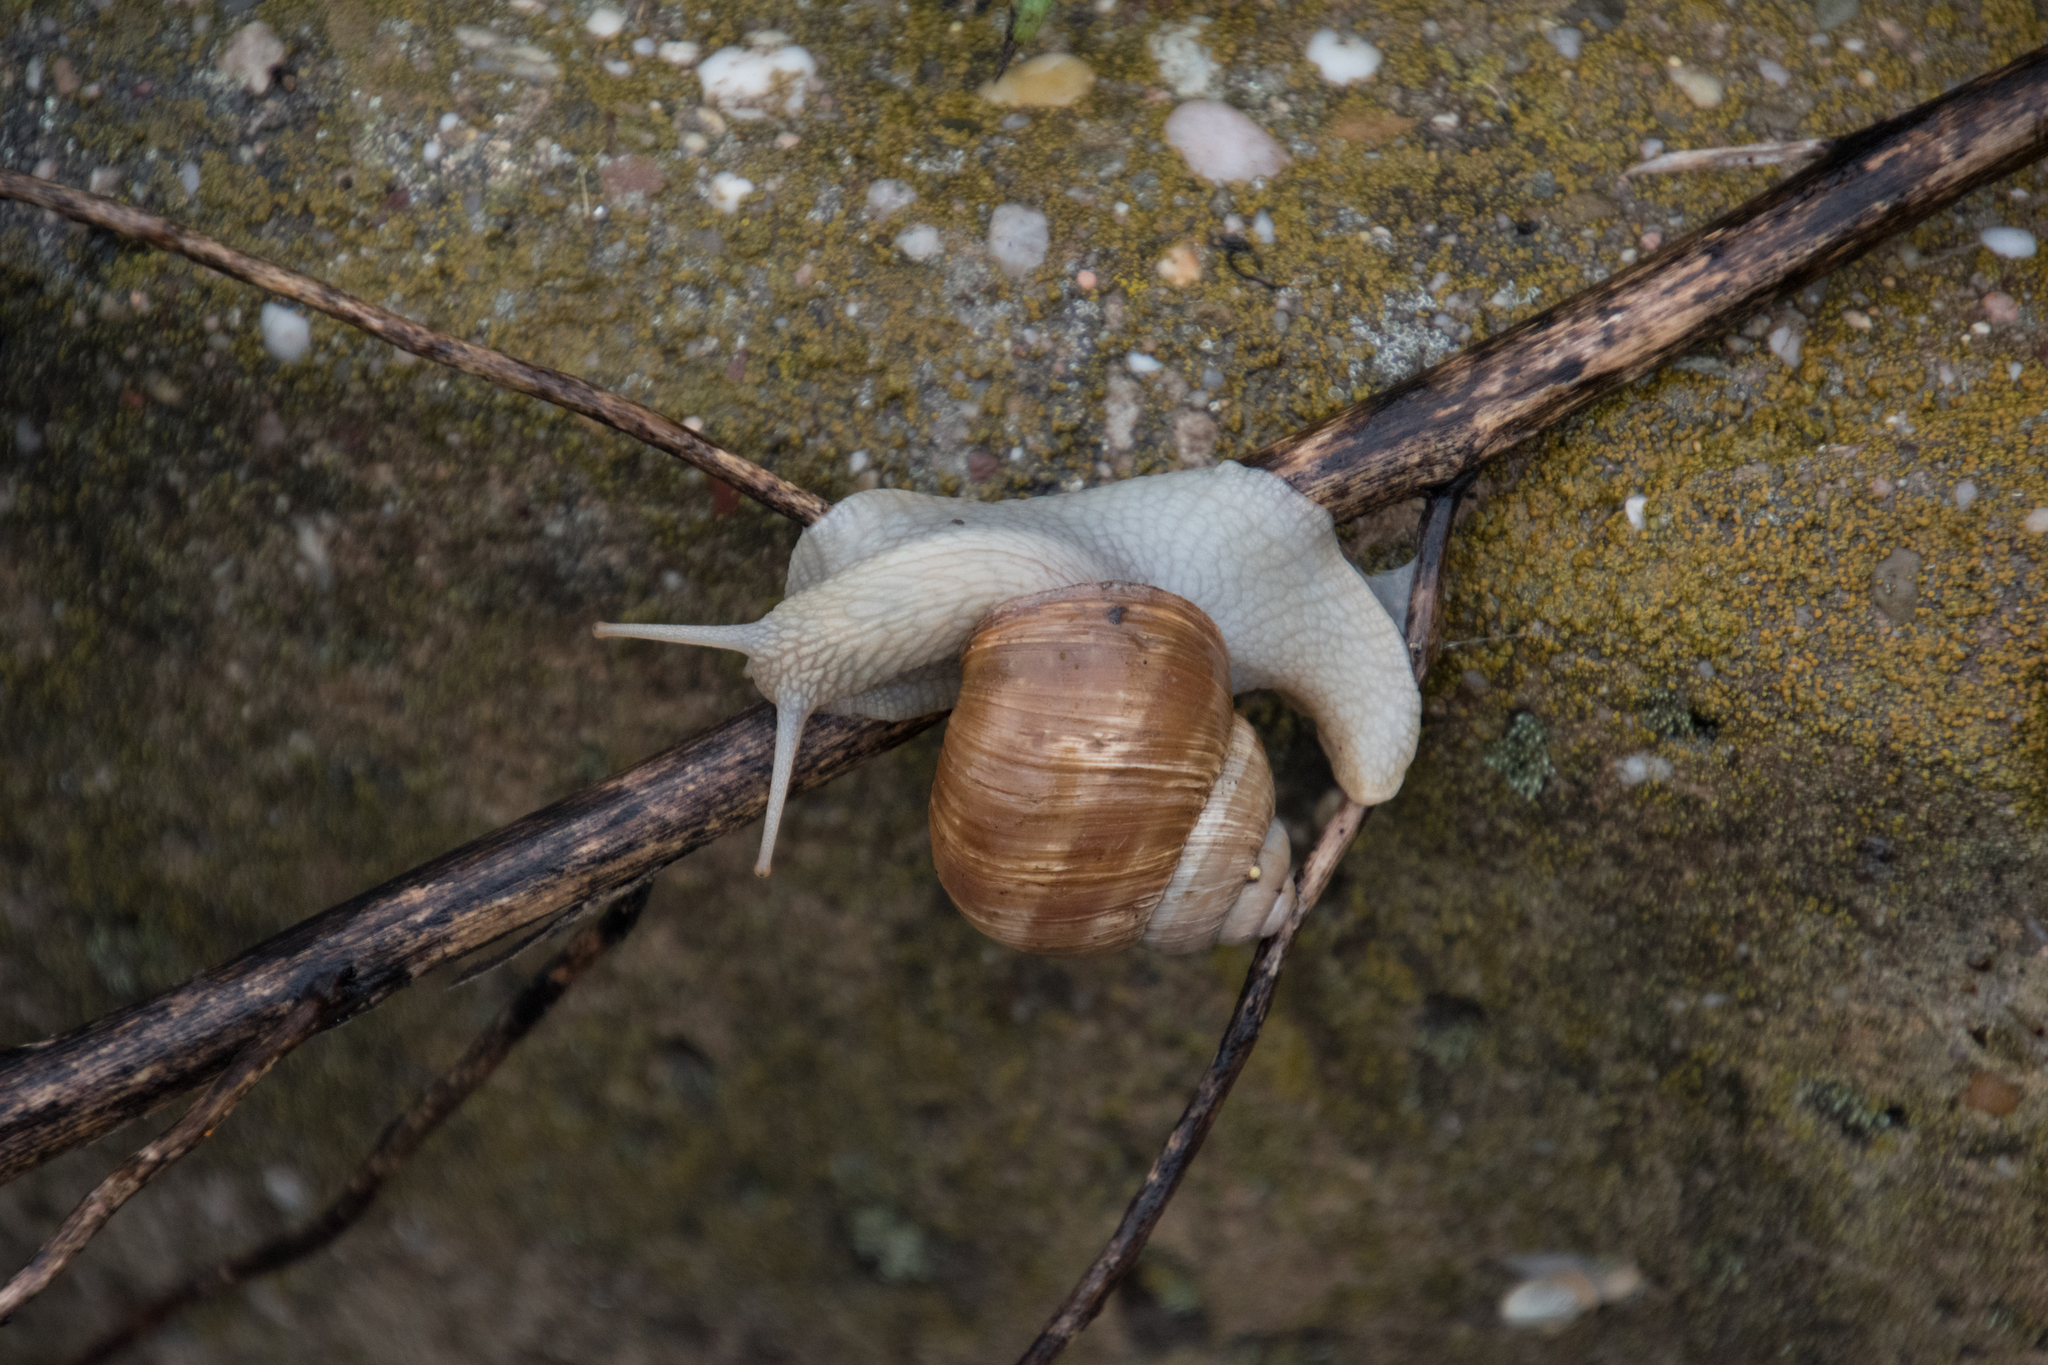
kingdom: Animalia
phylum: Mollusca
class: Gastropoda
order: Stylommatophora
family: Helicidae
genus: Helix
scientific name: Helix pomatia
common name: Roman snail
